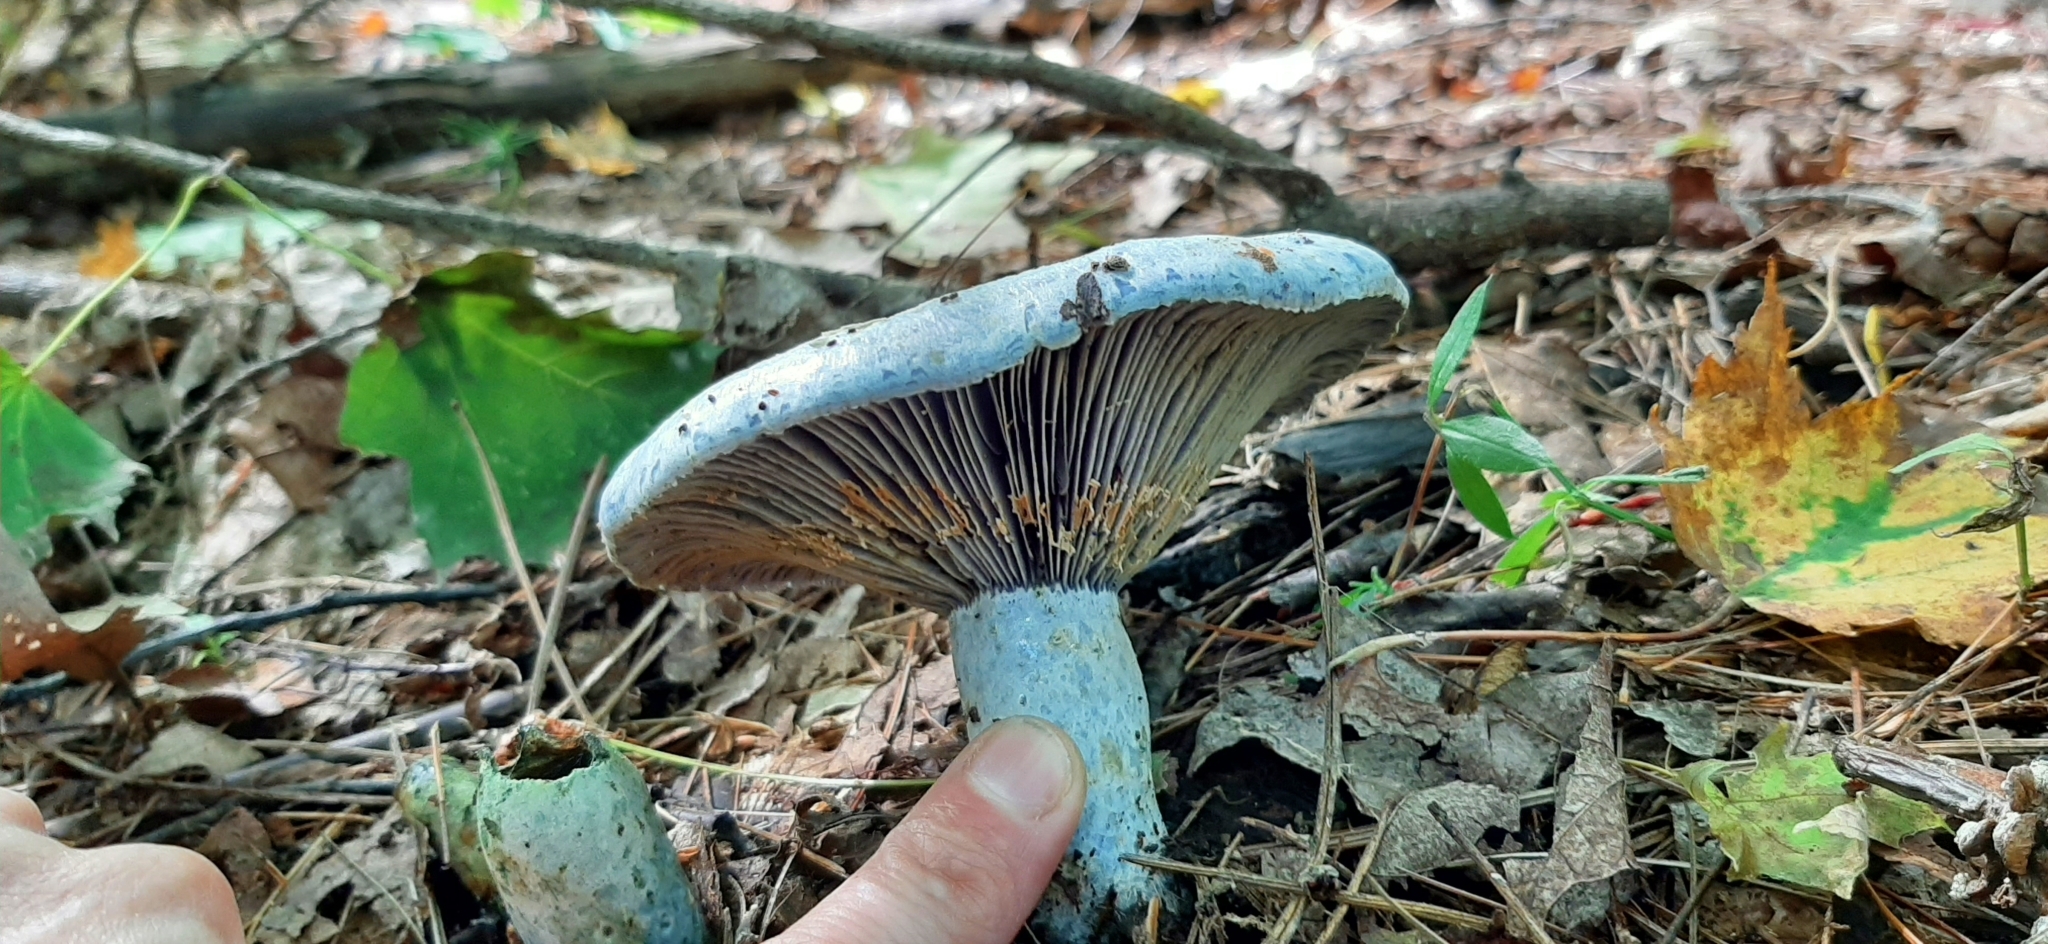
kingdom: Fungi
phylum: Basidiomycota
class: Agaricomycetes
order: Russulales
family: Russulaceae
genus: Lactarius
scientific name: Lactarius indigo
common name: Indigo milk cap
